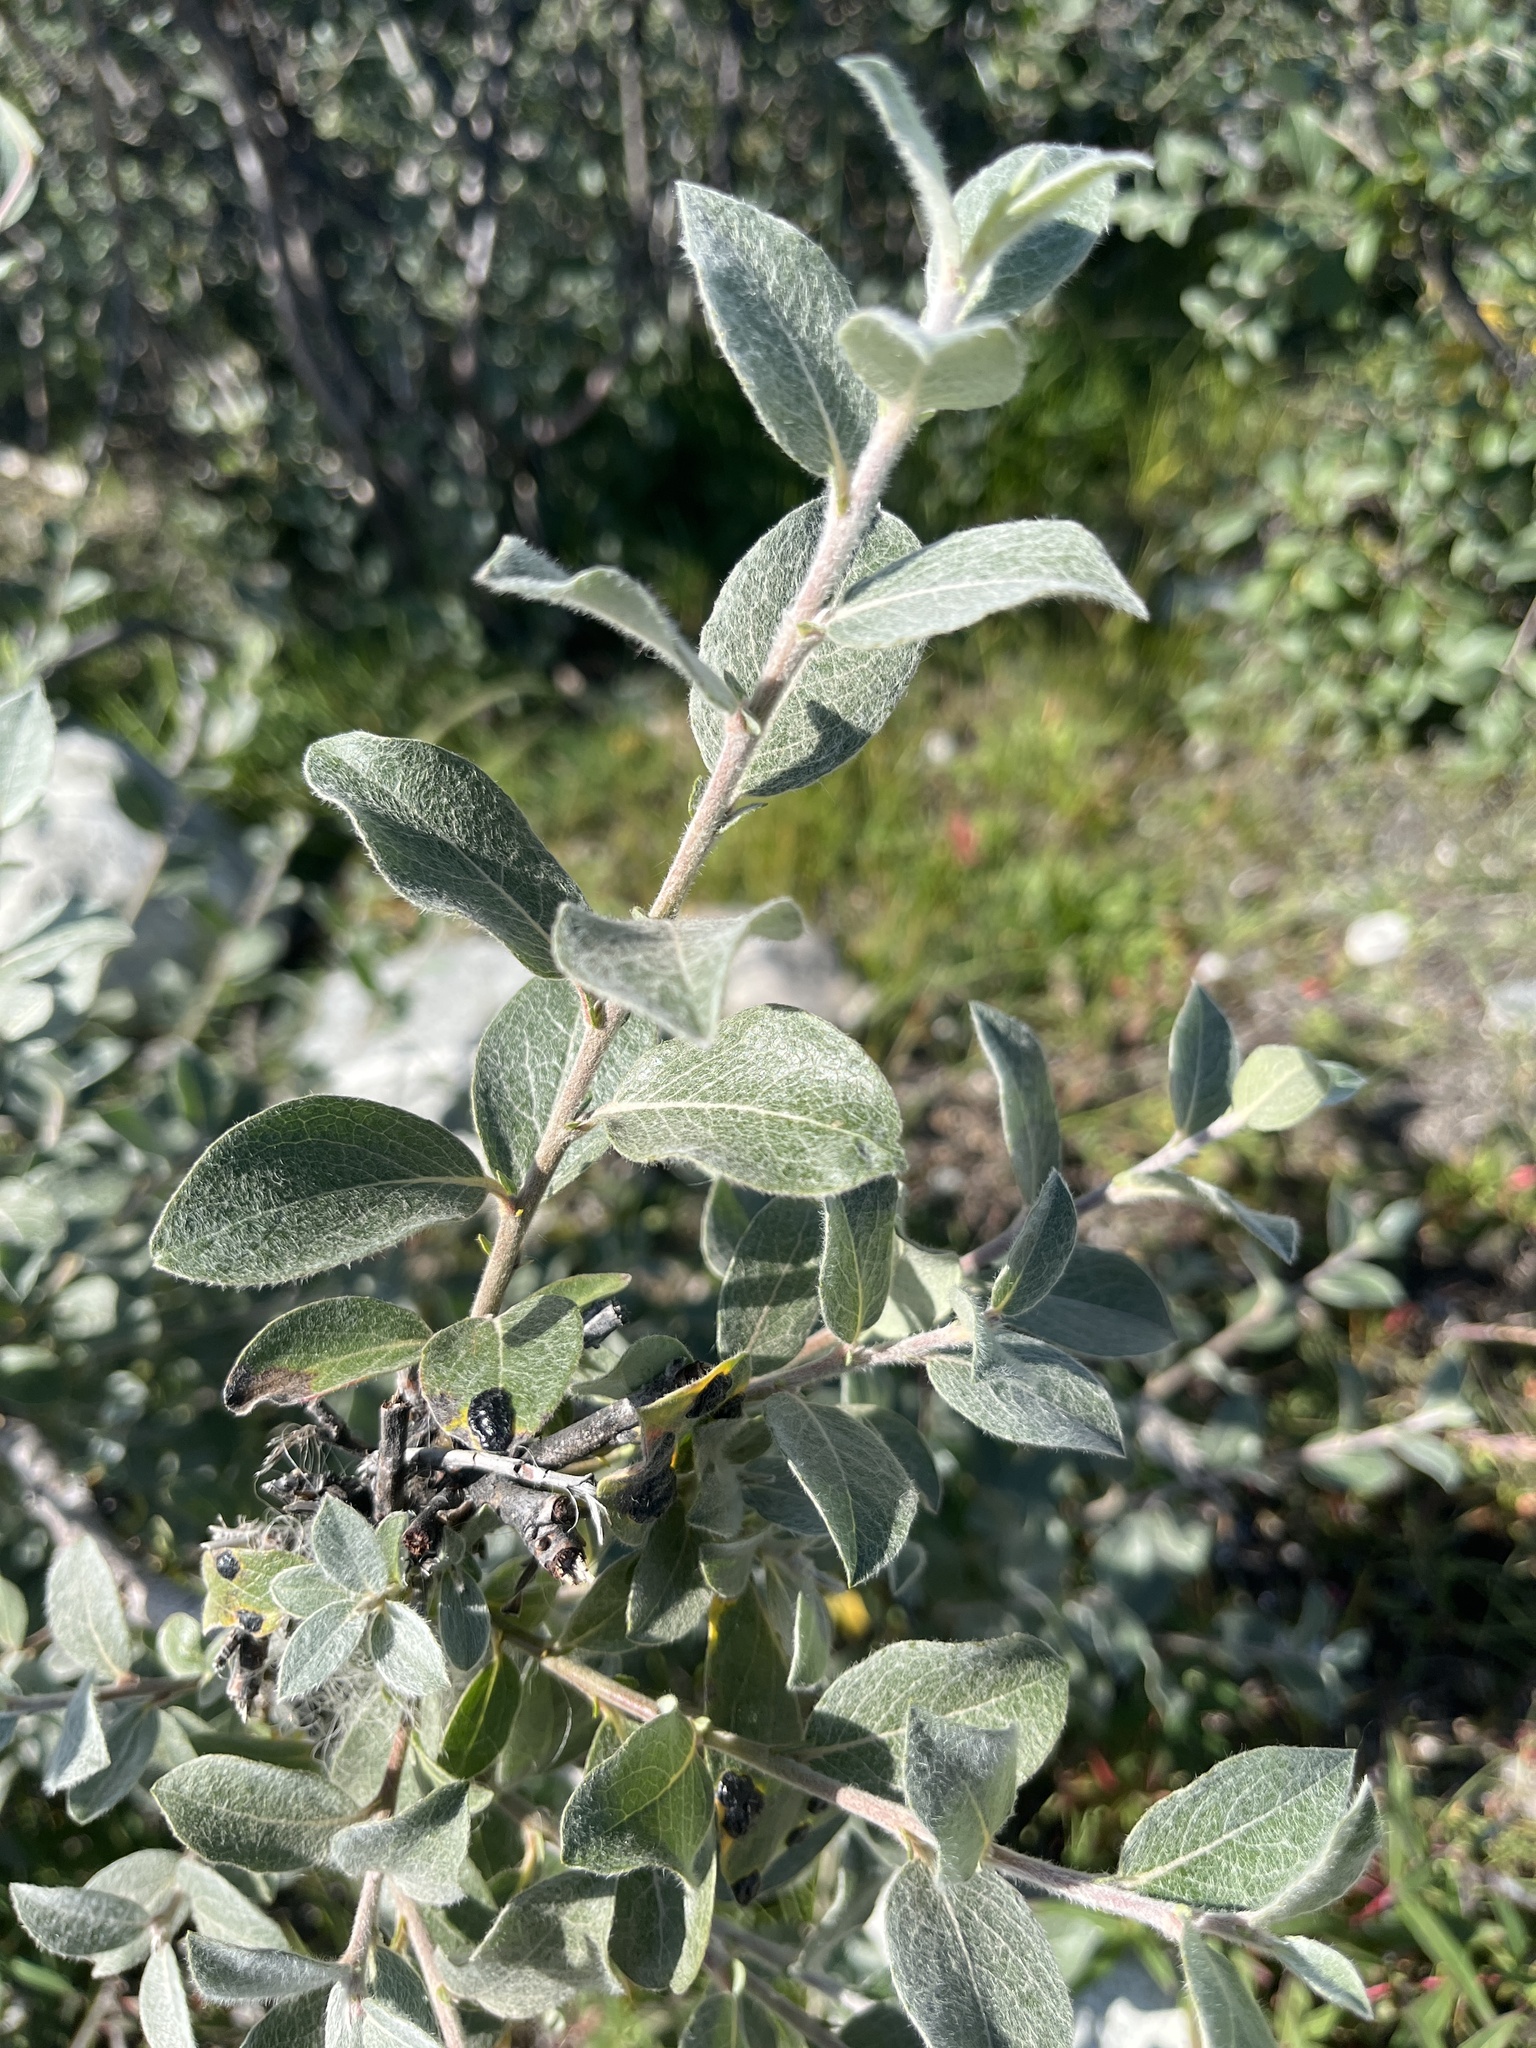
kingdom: Plantae
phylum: Tracheophyta
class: Magnoliopsida
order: Malpighiales
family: Salicaceae
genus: Salix
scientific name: Salix glauca
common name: Glaucous willow
